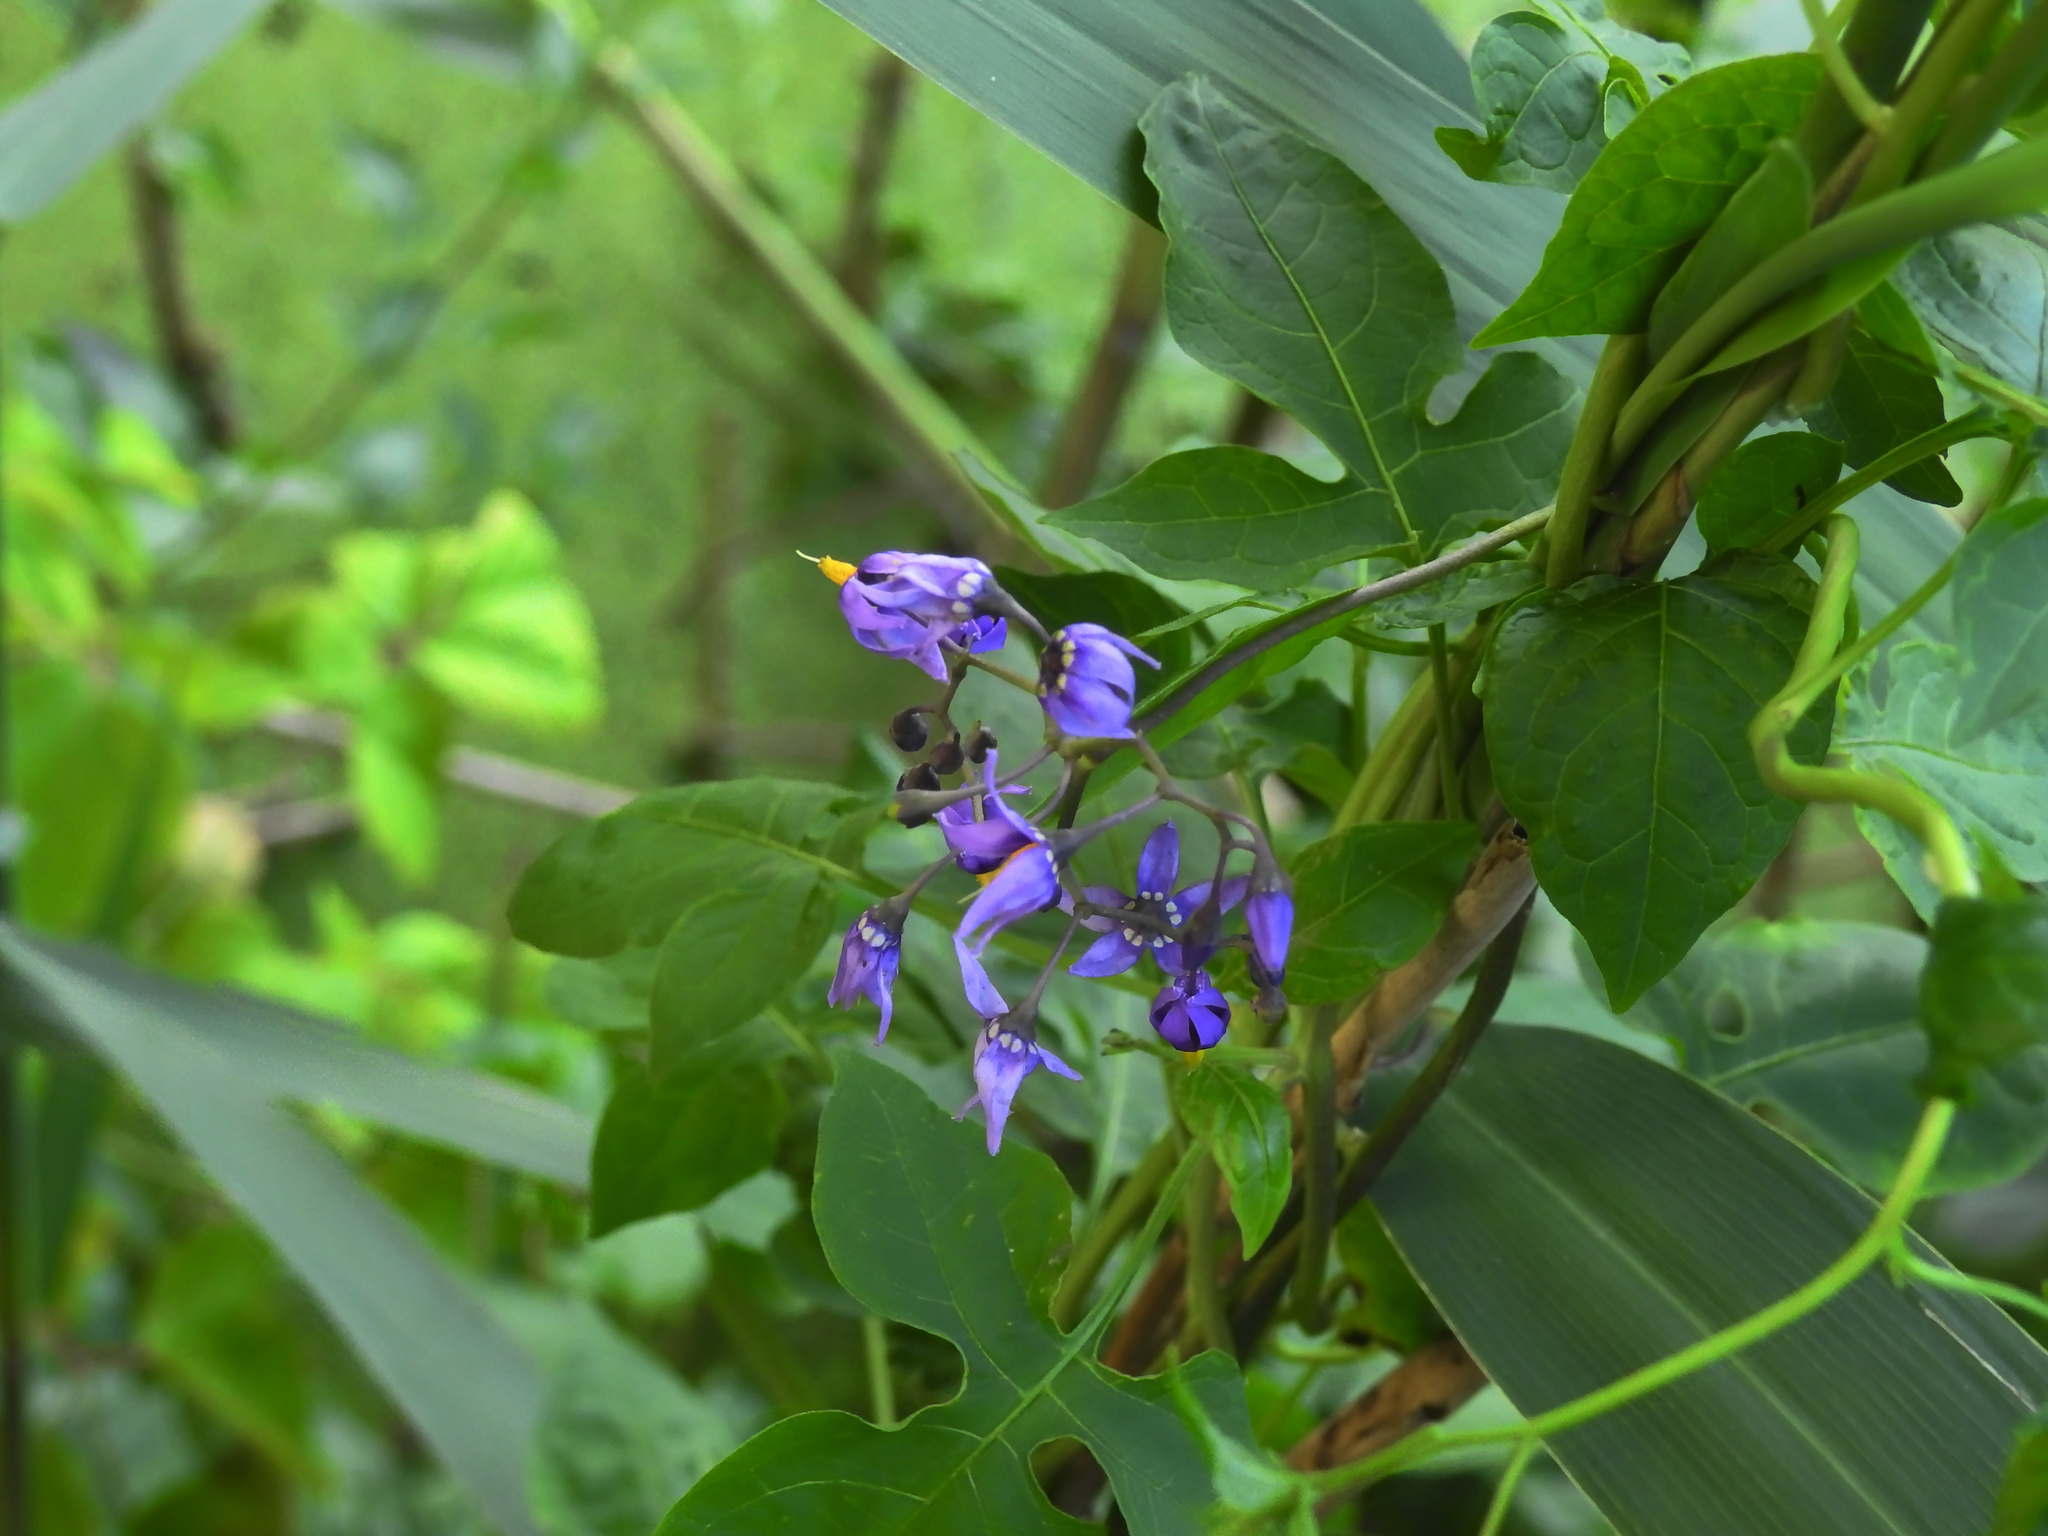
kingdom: Plantae
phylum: Tracheophyta
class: Magnoliopsida
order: Solanales
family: Solanaceae
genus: Solanum
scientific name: Solanum dulcamara
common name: Climbing nightshade
